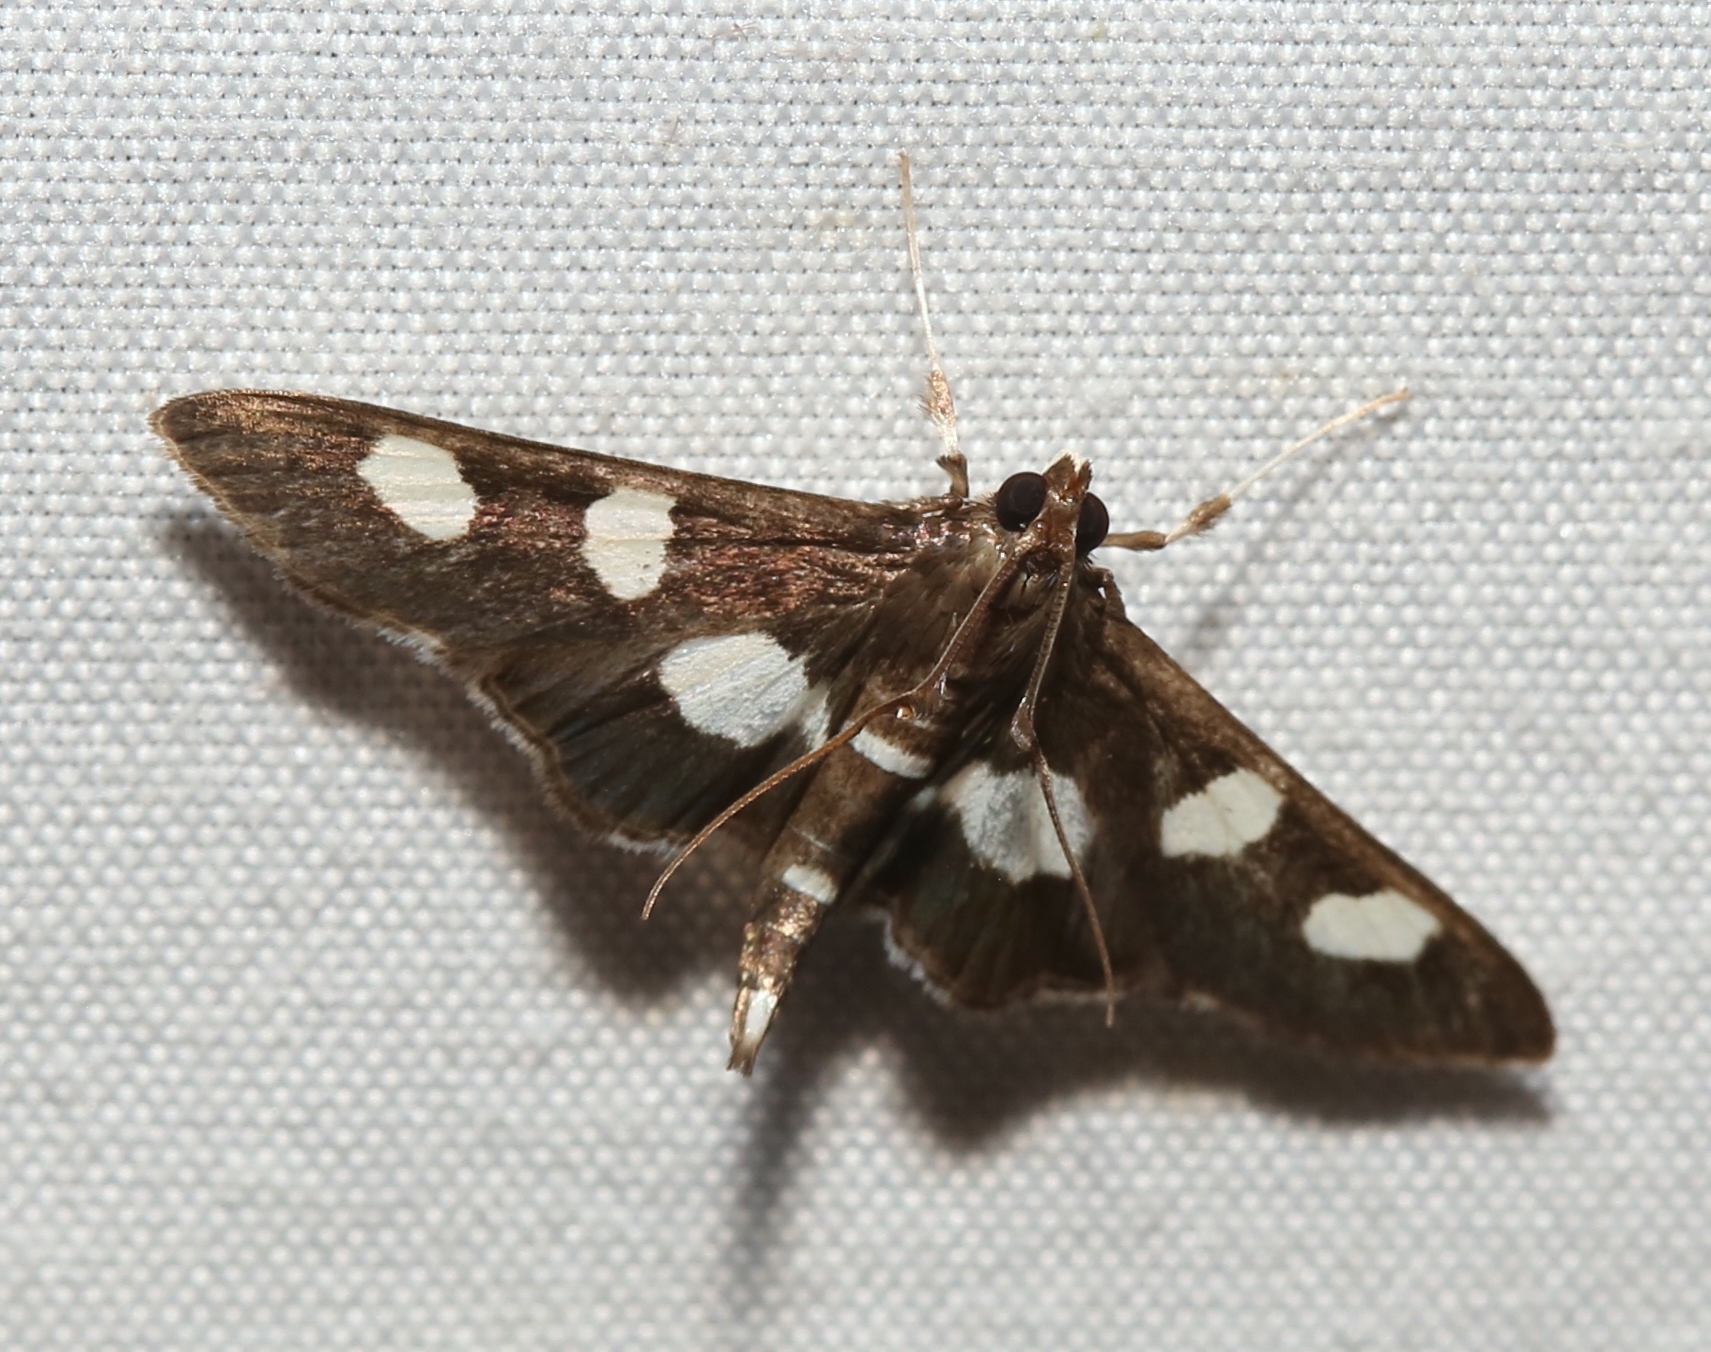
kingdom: Animalia
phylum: Arthropoda
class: Insecta
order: Lepidoptera
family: Crambidae
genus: Desmia
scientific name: Desmia
